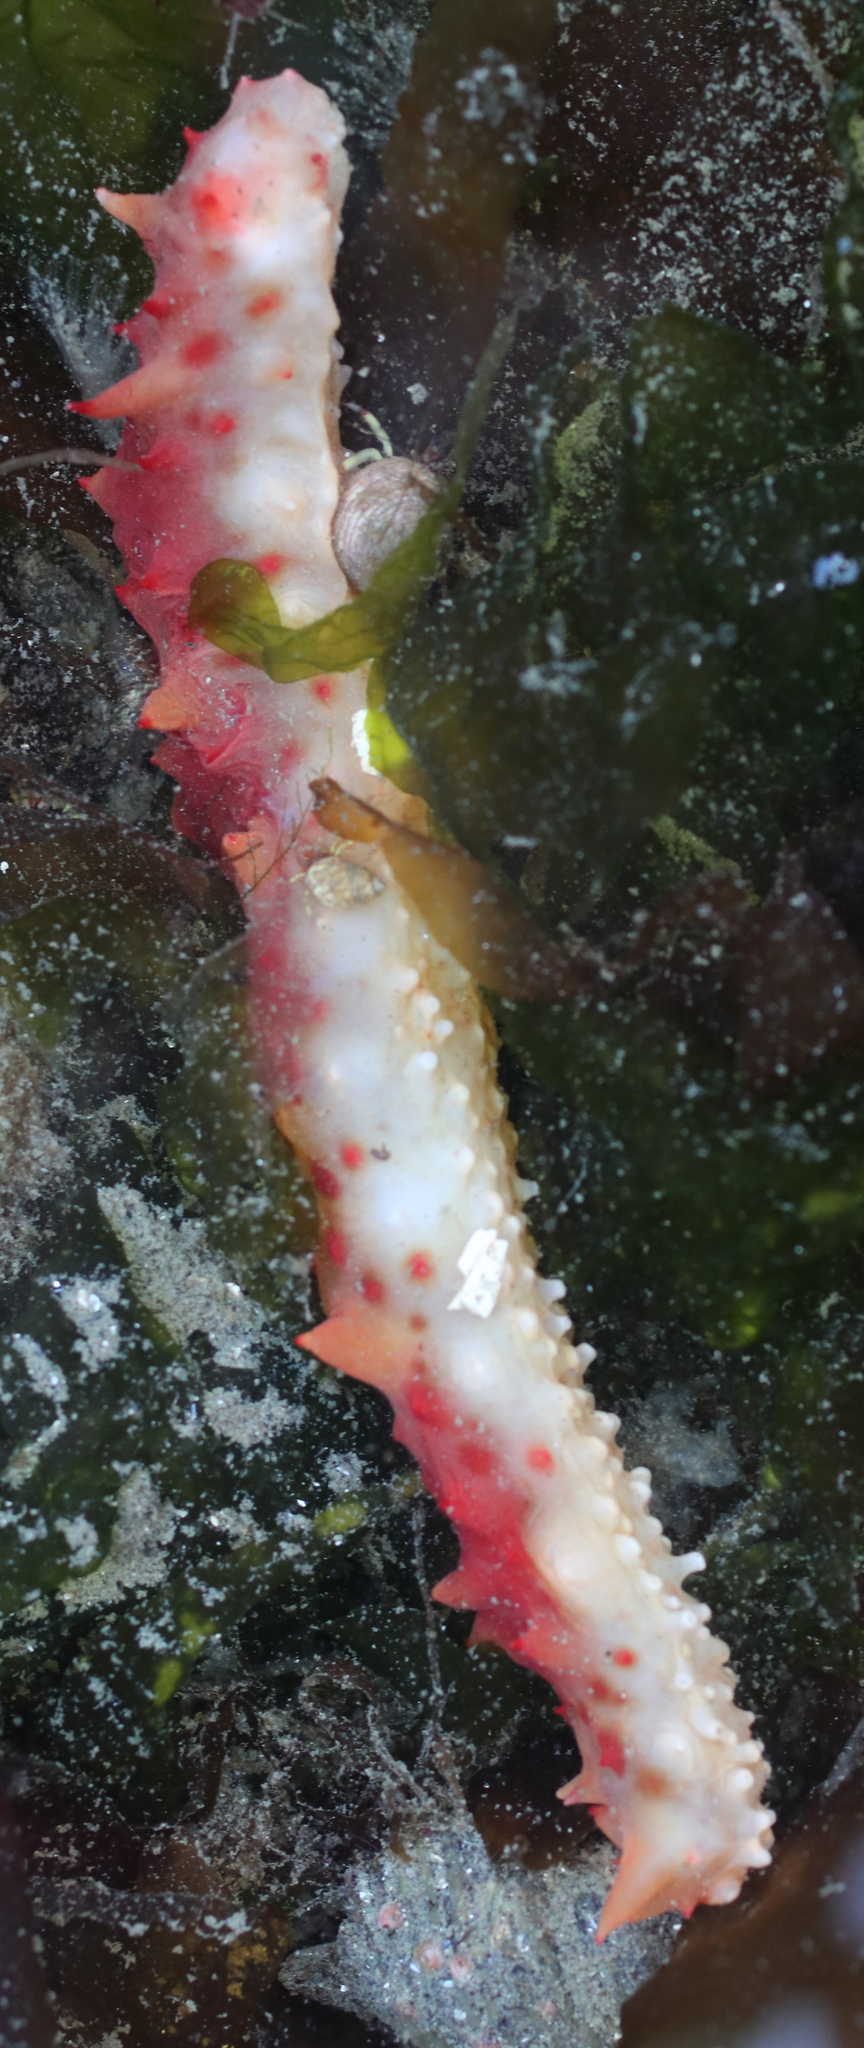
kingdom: Animalia
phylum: Echinodermata
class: Holothuroidea
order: Synallactida
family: Stichopodidae
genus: Apostichopus
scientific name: Apostichopus californicus
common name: California sea cucumber
